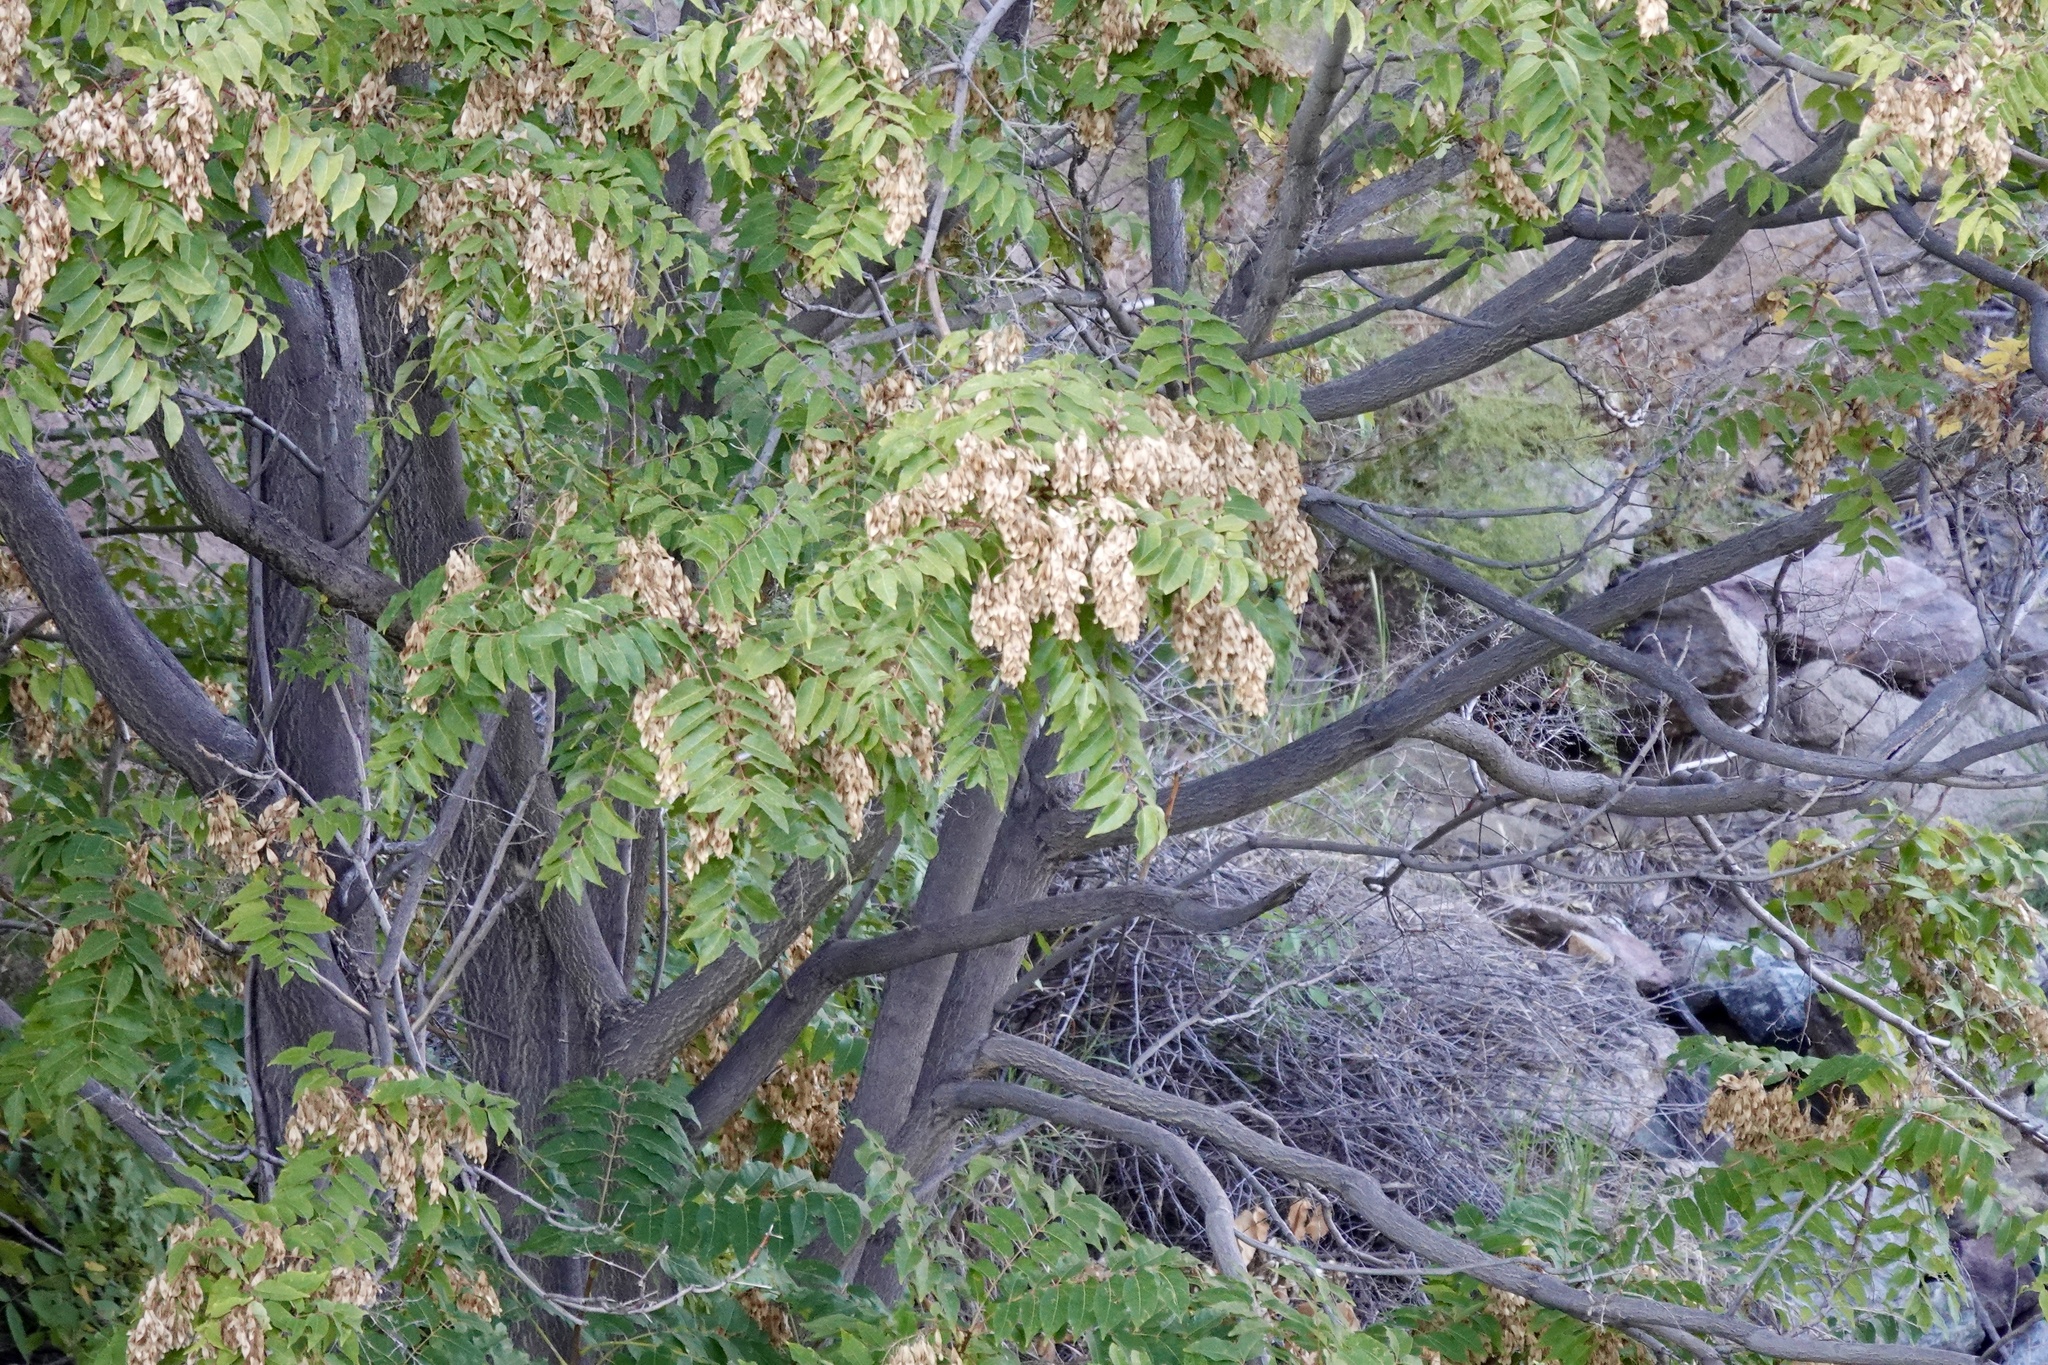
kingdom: Plantae
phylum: Tracheophyta
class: Magnoliopsida
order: Sapindales
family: Simaroubaceae
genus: Ailanthus
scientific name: Ailanthus altissima
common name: Tree-of-heaven
